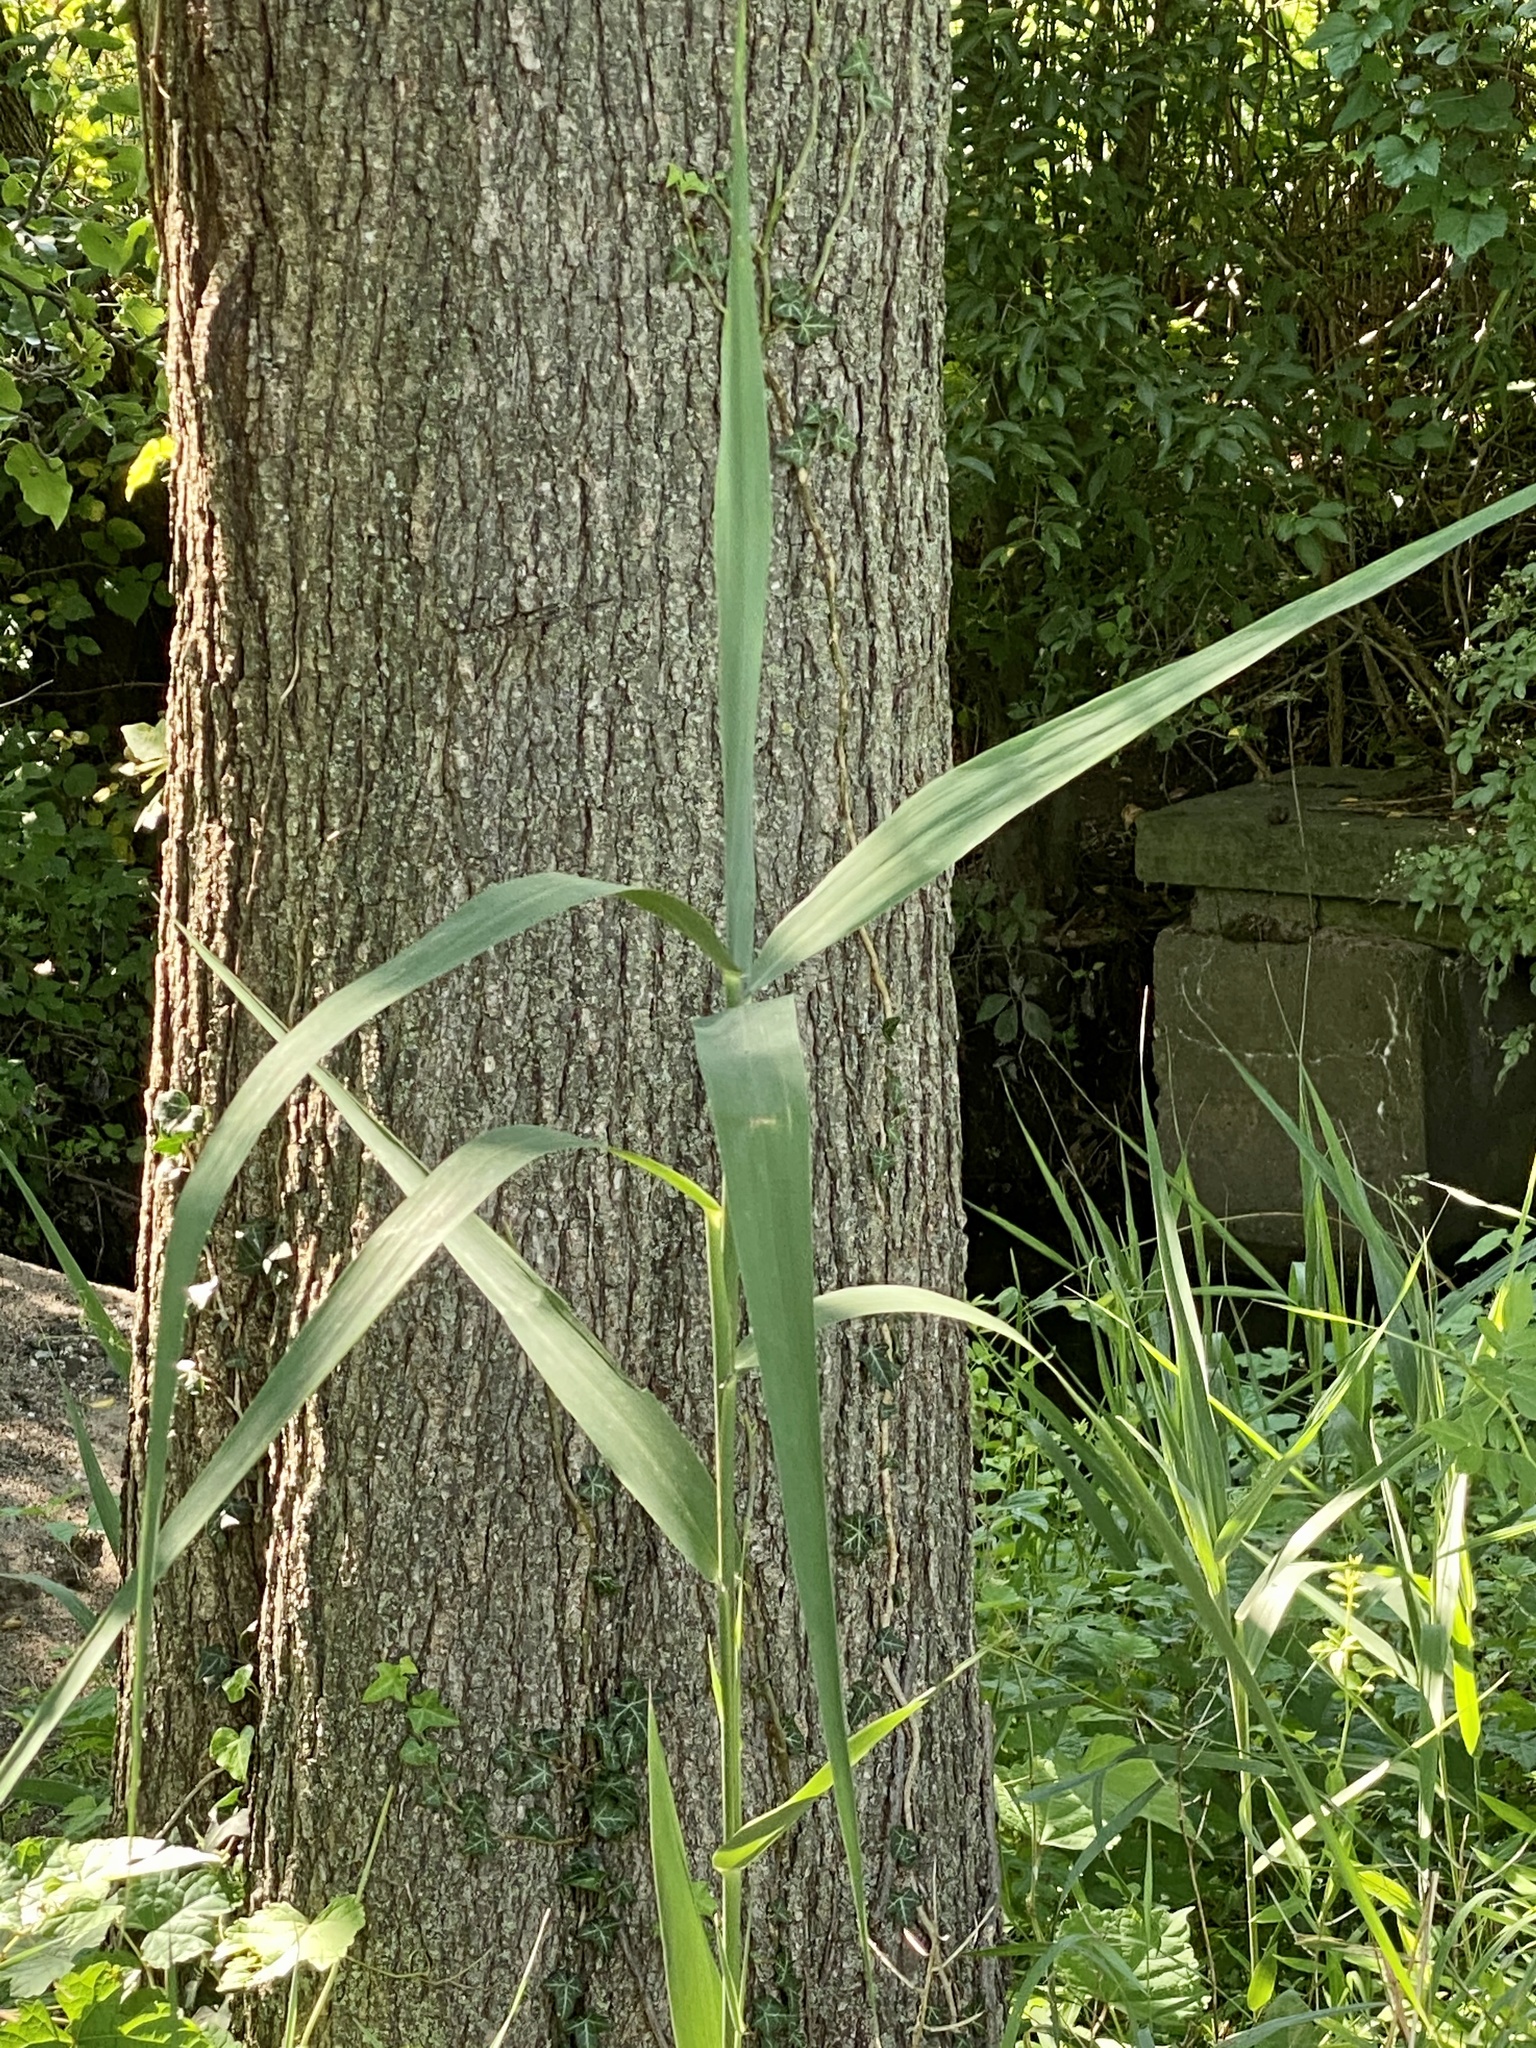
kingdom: Plantae
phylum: Tracheophyta
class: Liliopsida
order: Poales
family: Poaceae
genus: Phragmites
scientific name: Phragmites australis
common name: Common reed
